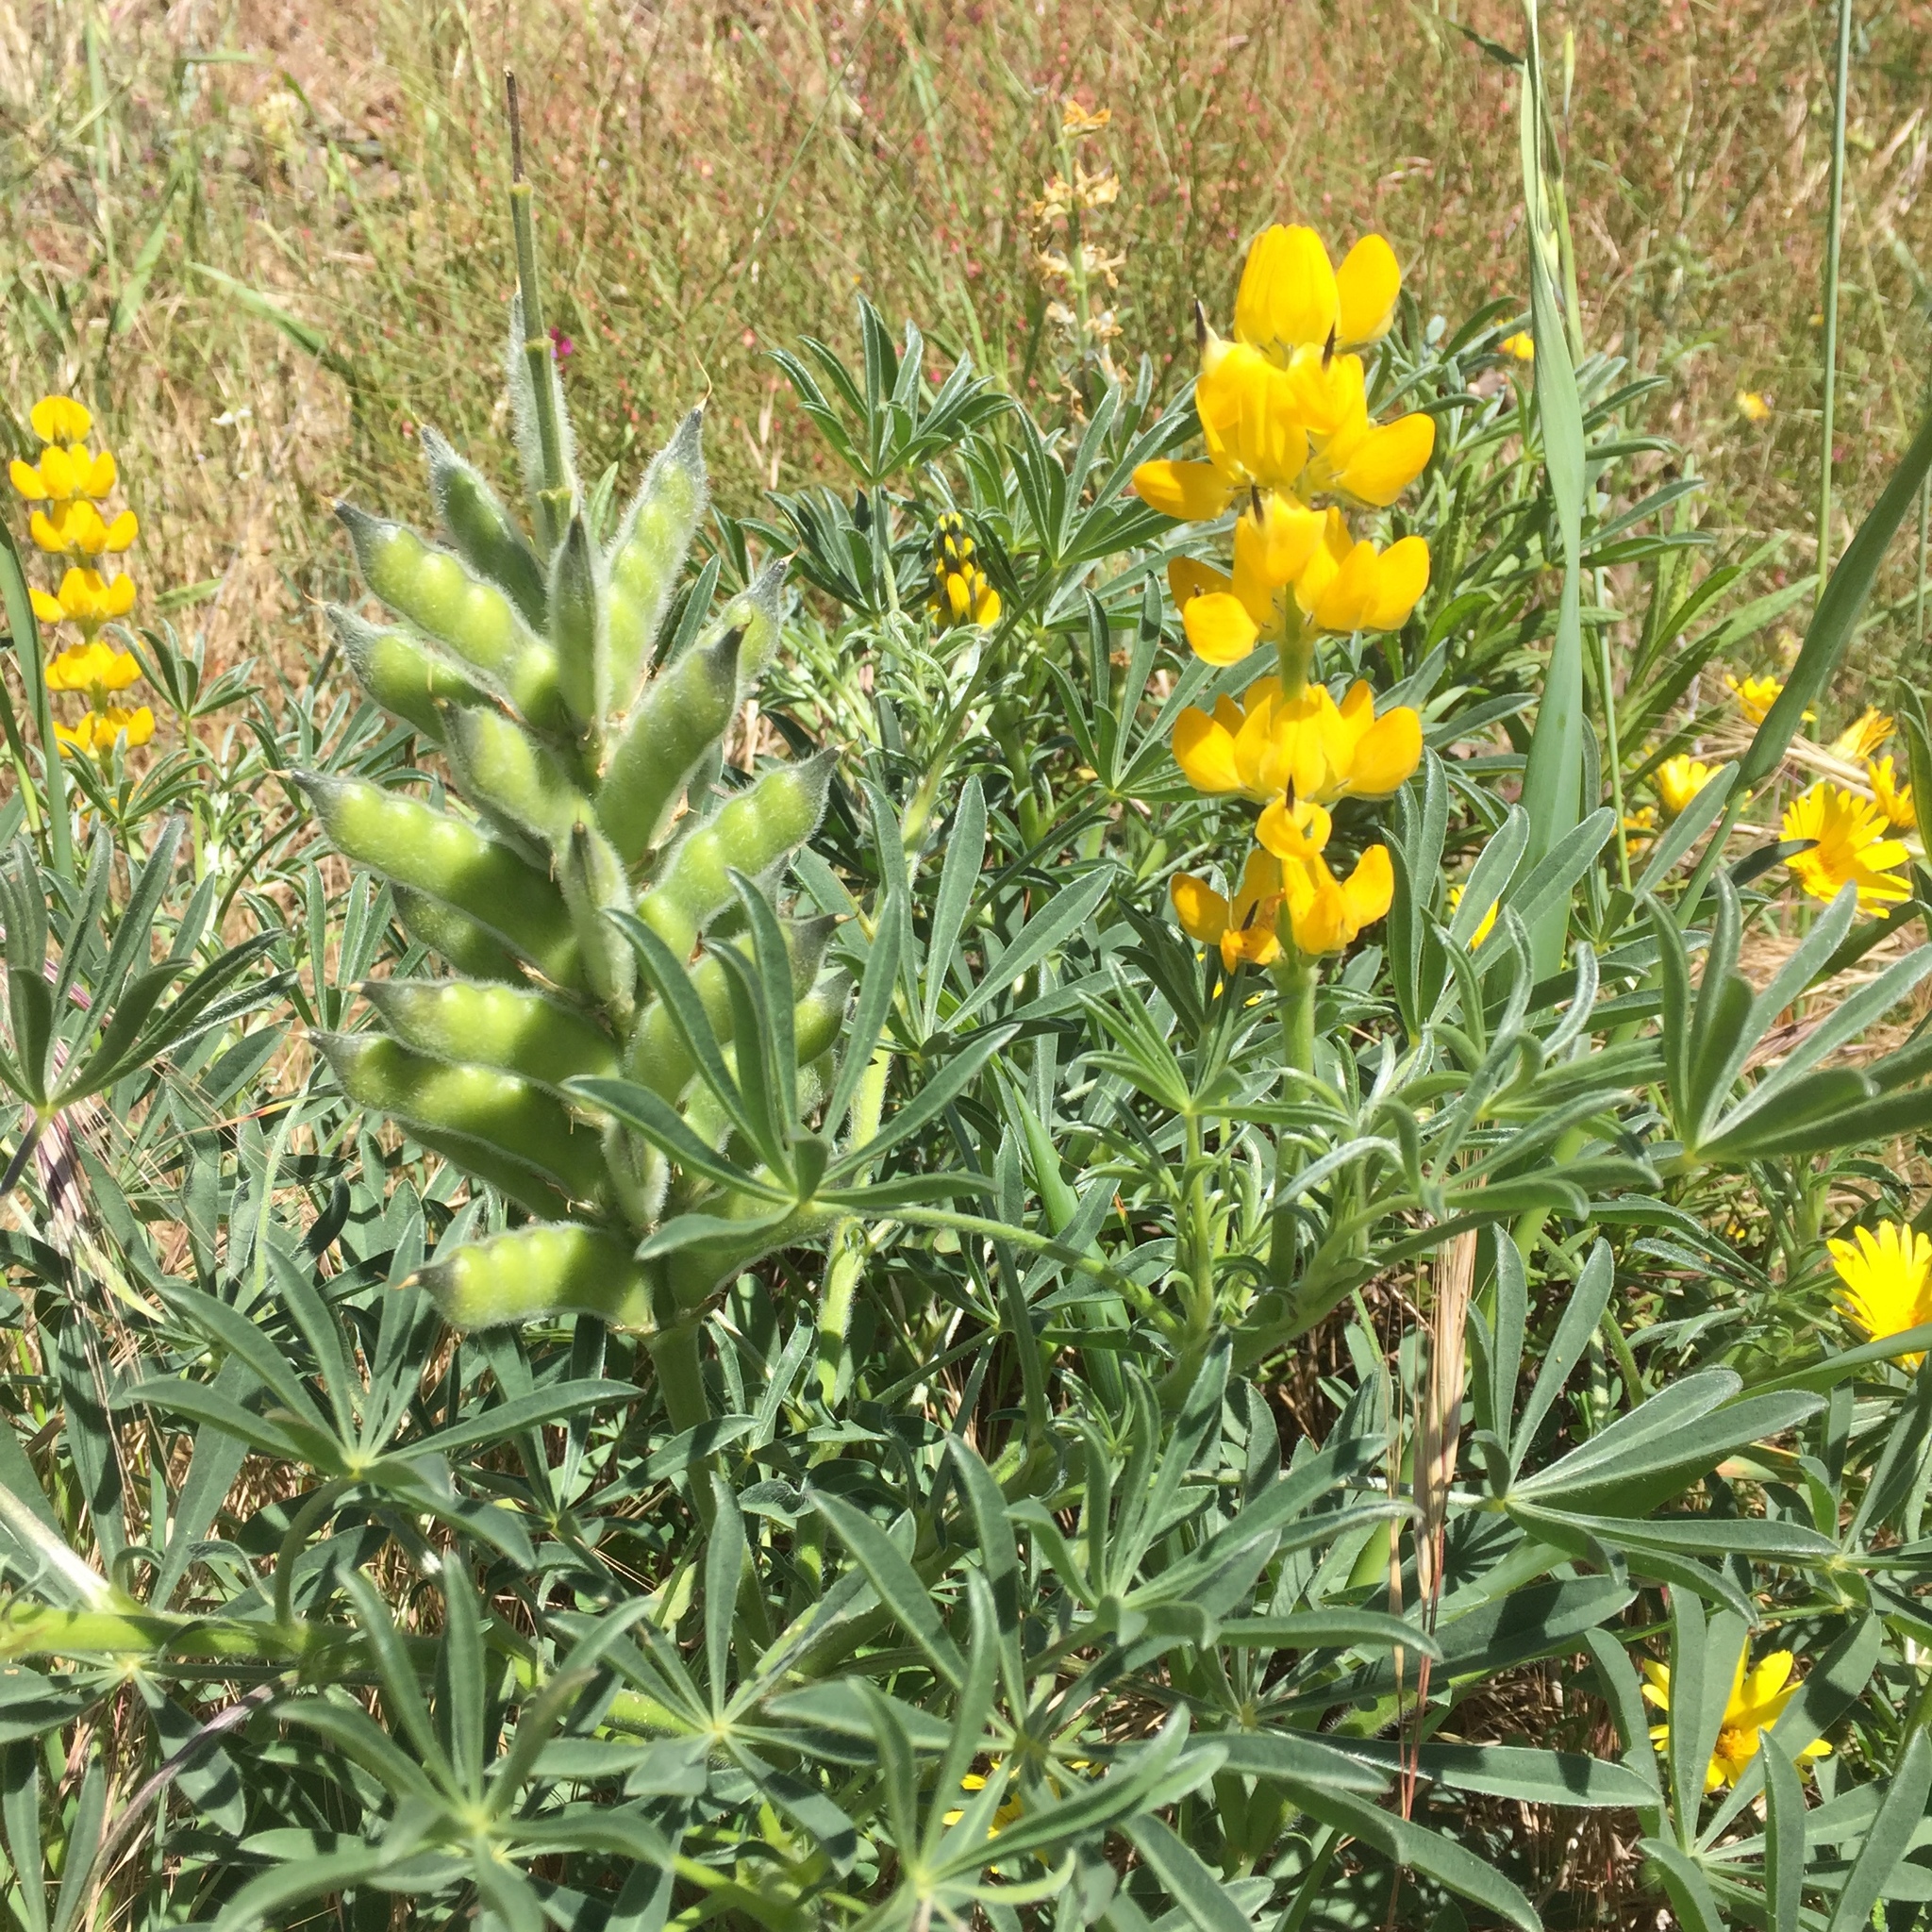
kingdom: Plantae
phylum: Tracheophyta
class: Magnoliopsida
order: Fabales
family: Fabaceae
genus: Lupinus
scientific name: Lupinus luteus
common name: European yellow lupine
